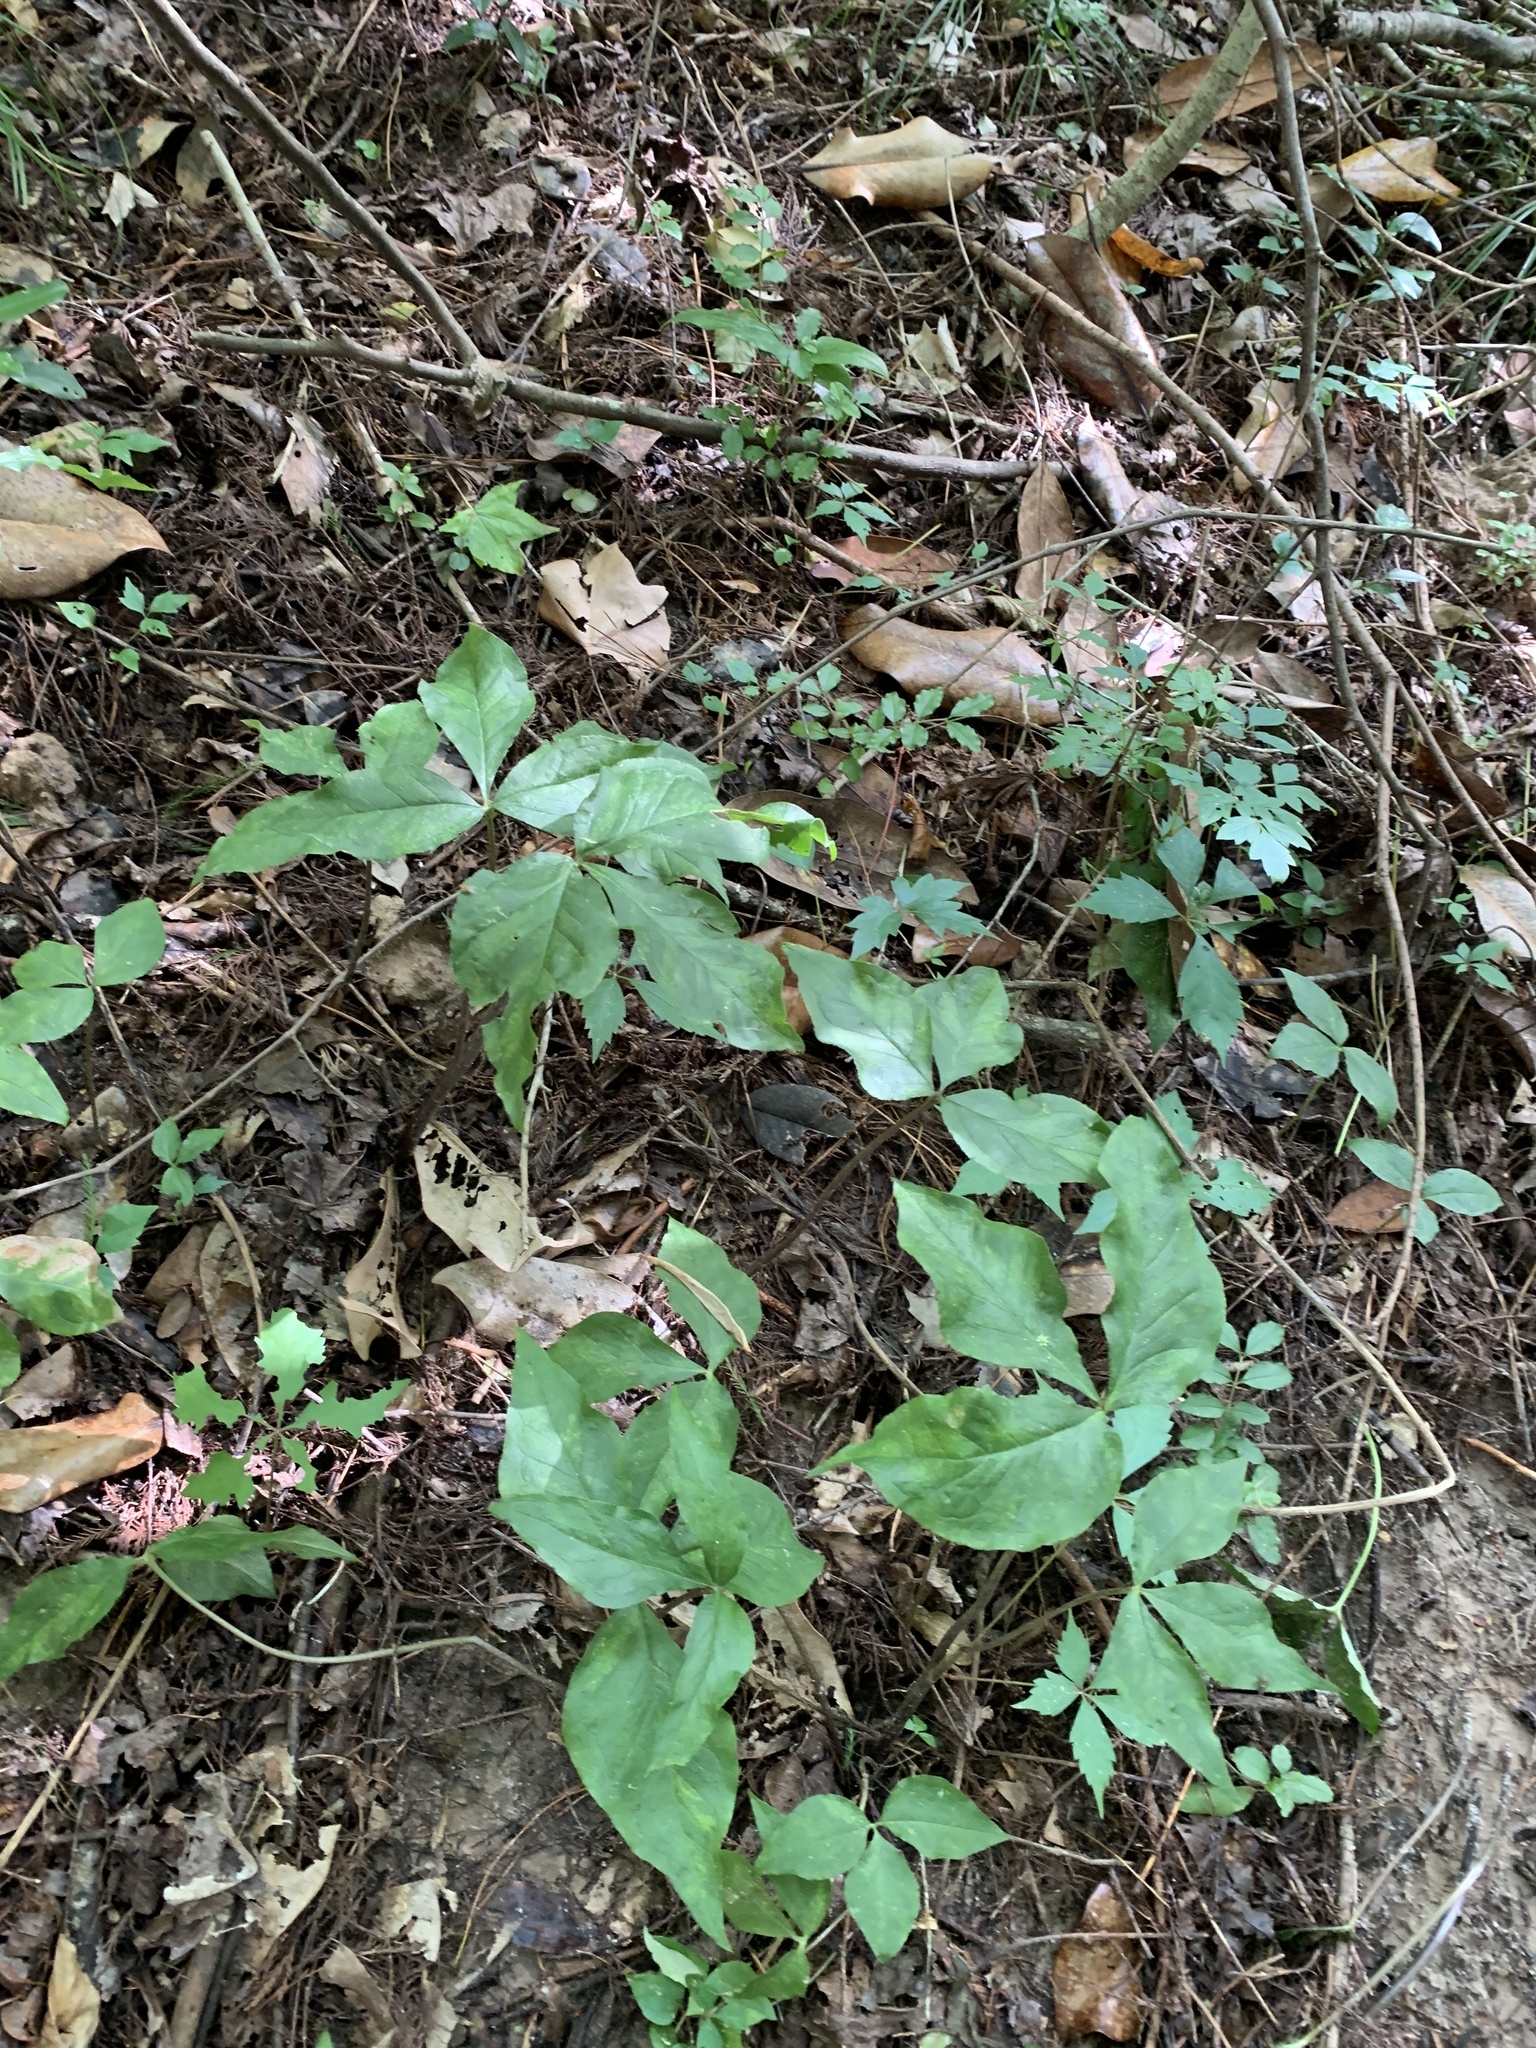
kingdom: Plantae
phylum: Tracheophyta
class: Liliopsida
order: Alismatales
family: Araceae
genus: Arisaema
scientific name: Arisaema triphyllum
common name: Jack-in-the-pulpit
